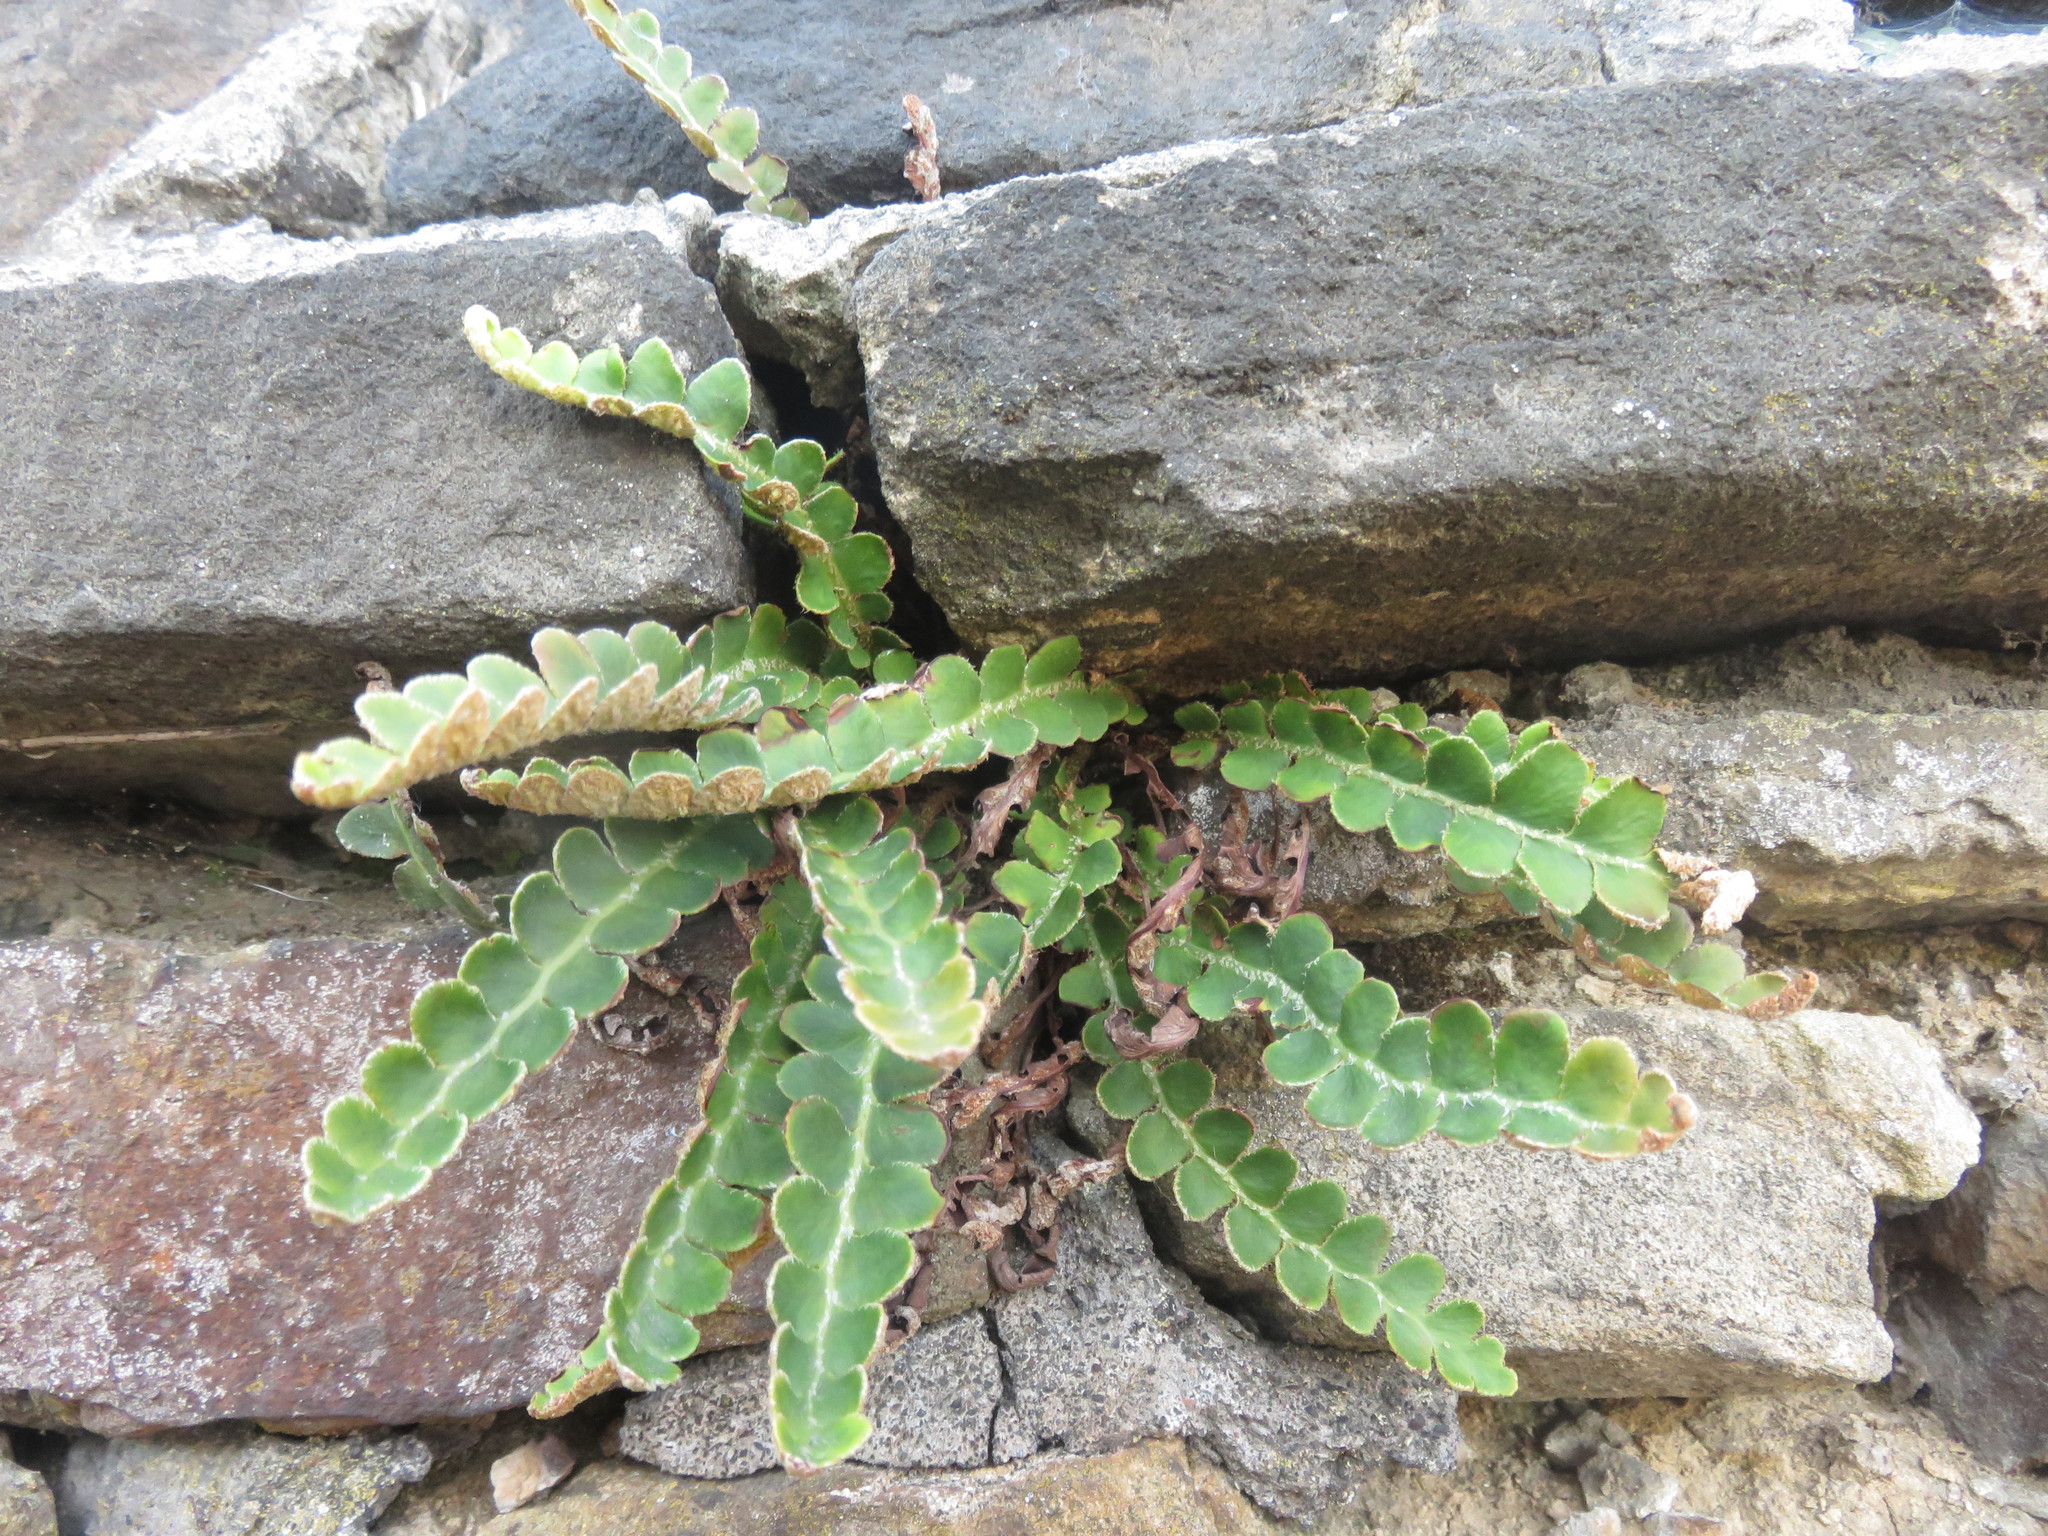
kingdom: Plantae
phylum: Tracheophyta
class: Polypodiopsida
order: Polypodiales
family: Aspleniaceae
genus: Asplenium
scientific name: Asplenium ceterach
